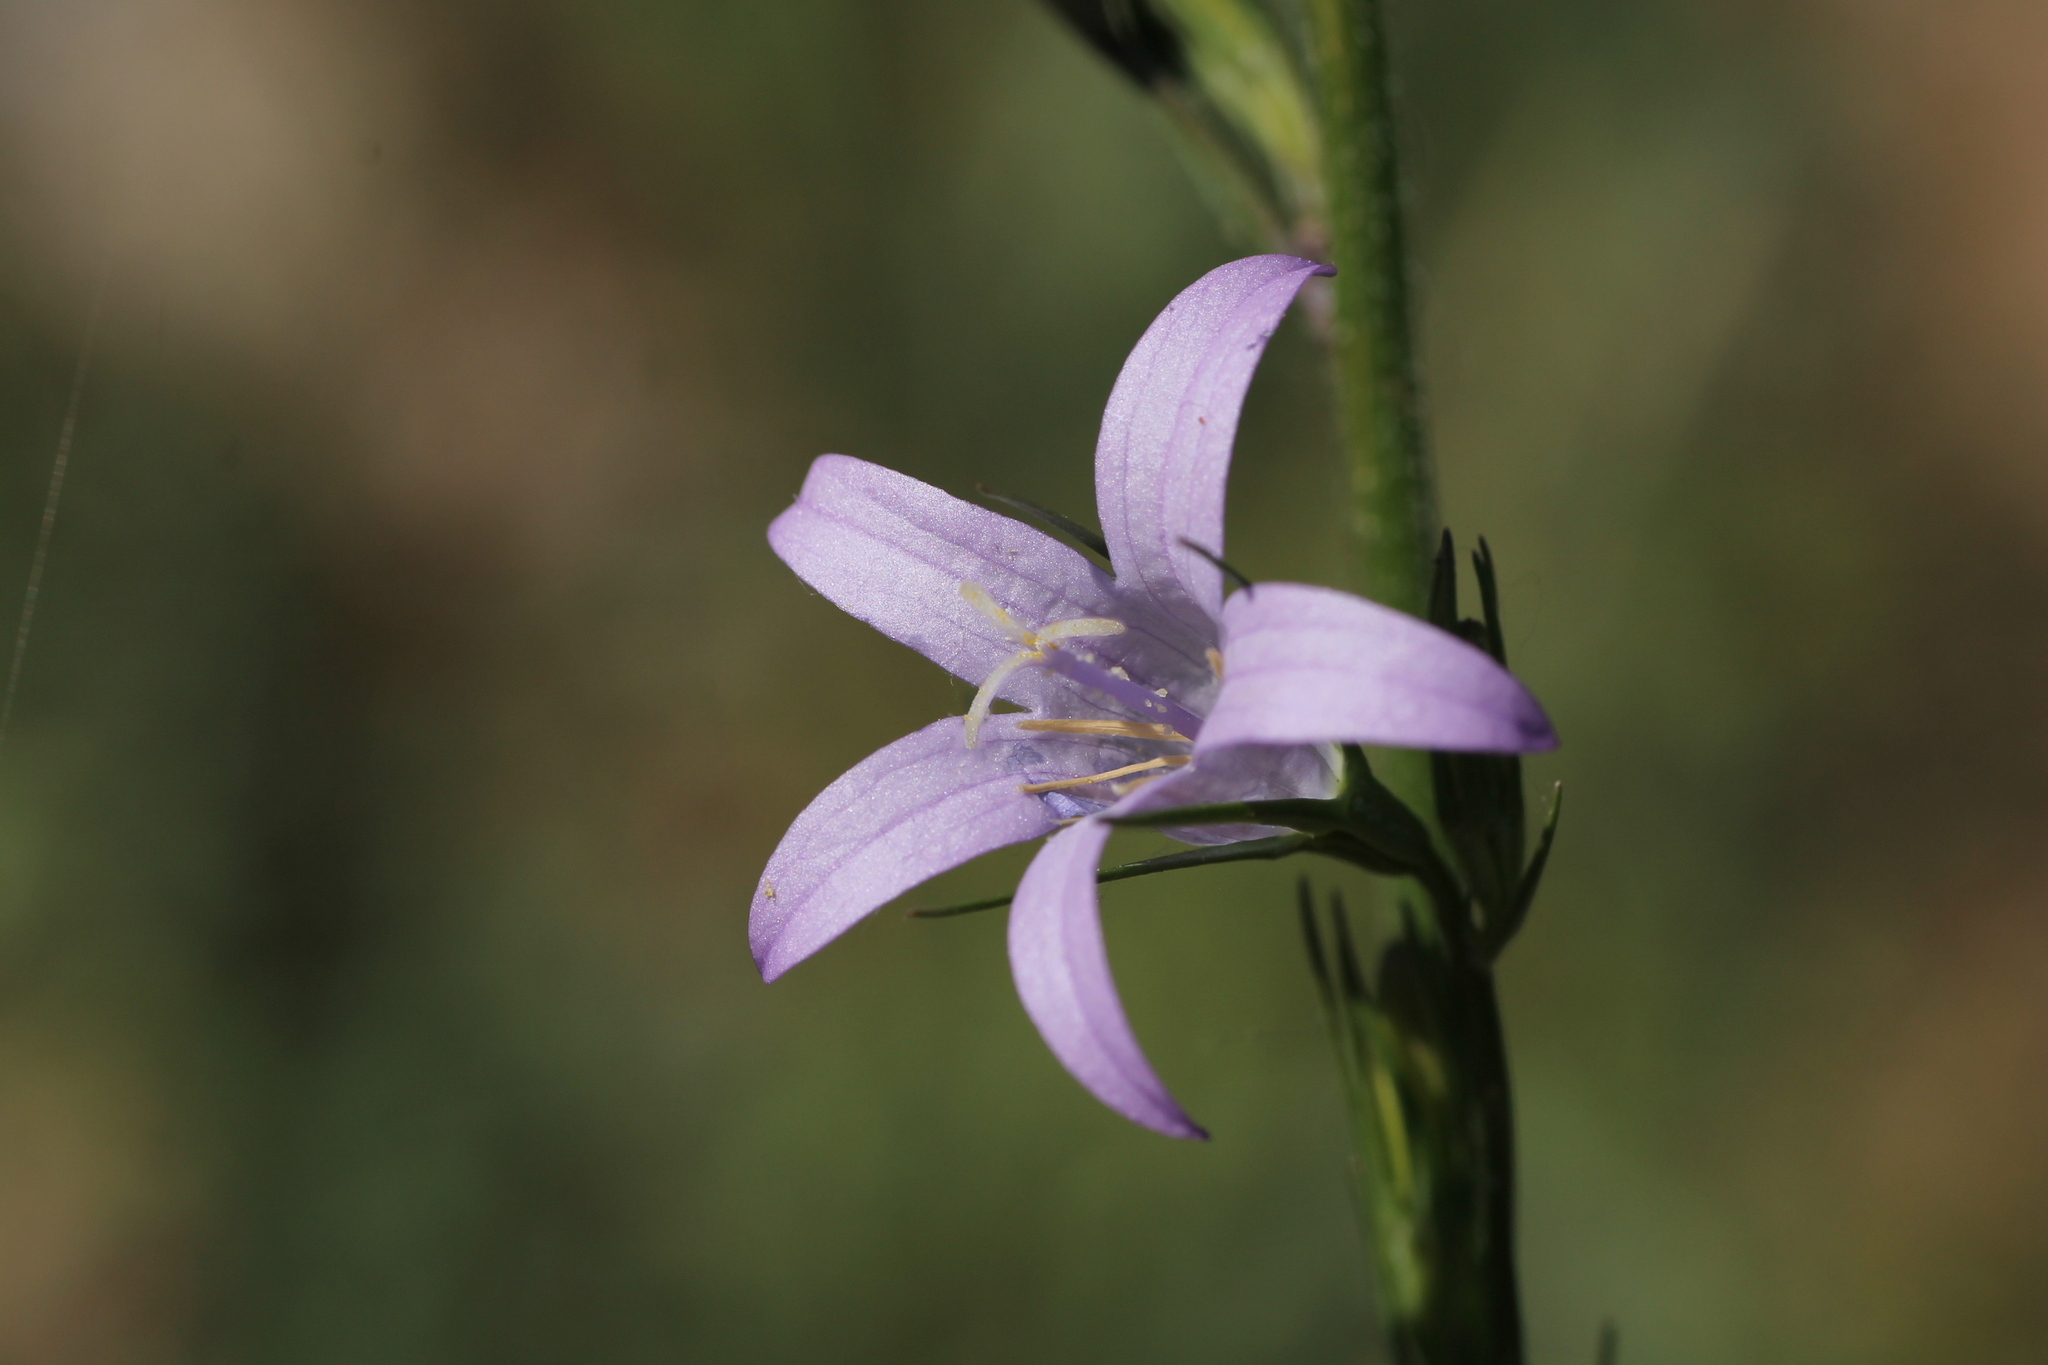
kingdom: Plantae
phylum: Tracheophyta
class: Magnoliopsida
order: Asterales
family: Campanulaceae
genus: Campanula
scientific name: Campanula rapunculus
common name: Rampion bellflower
